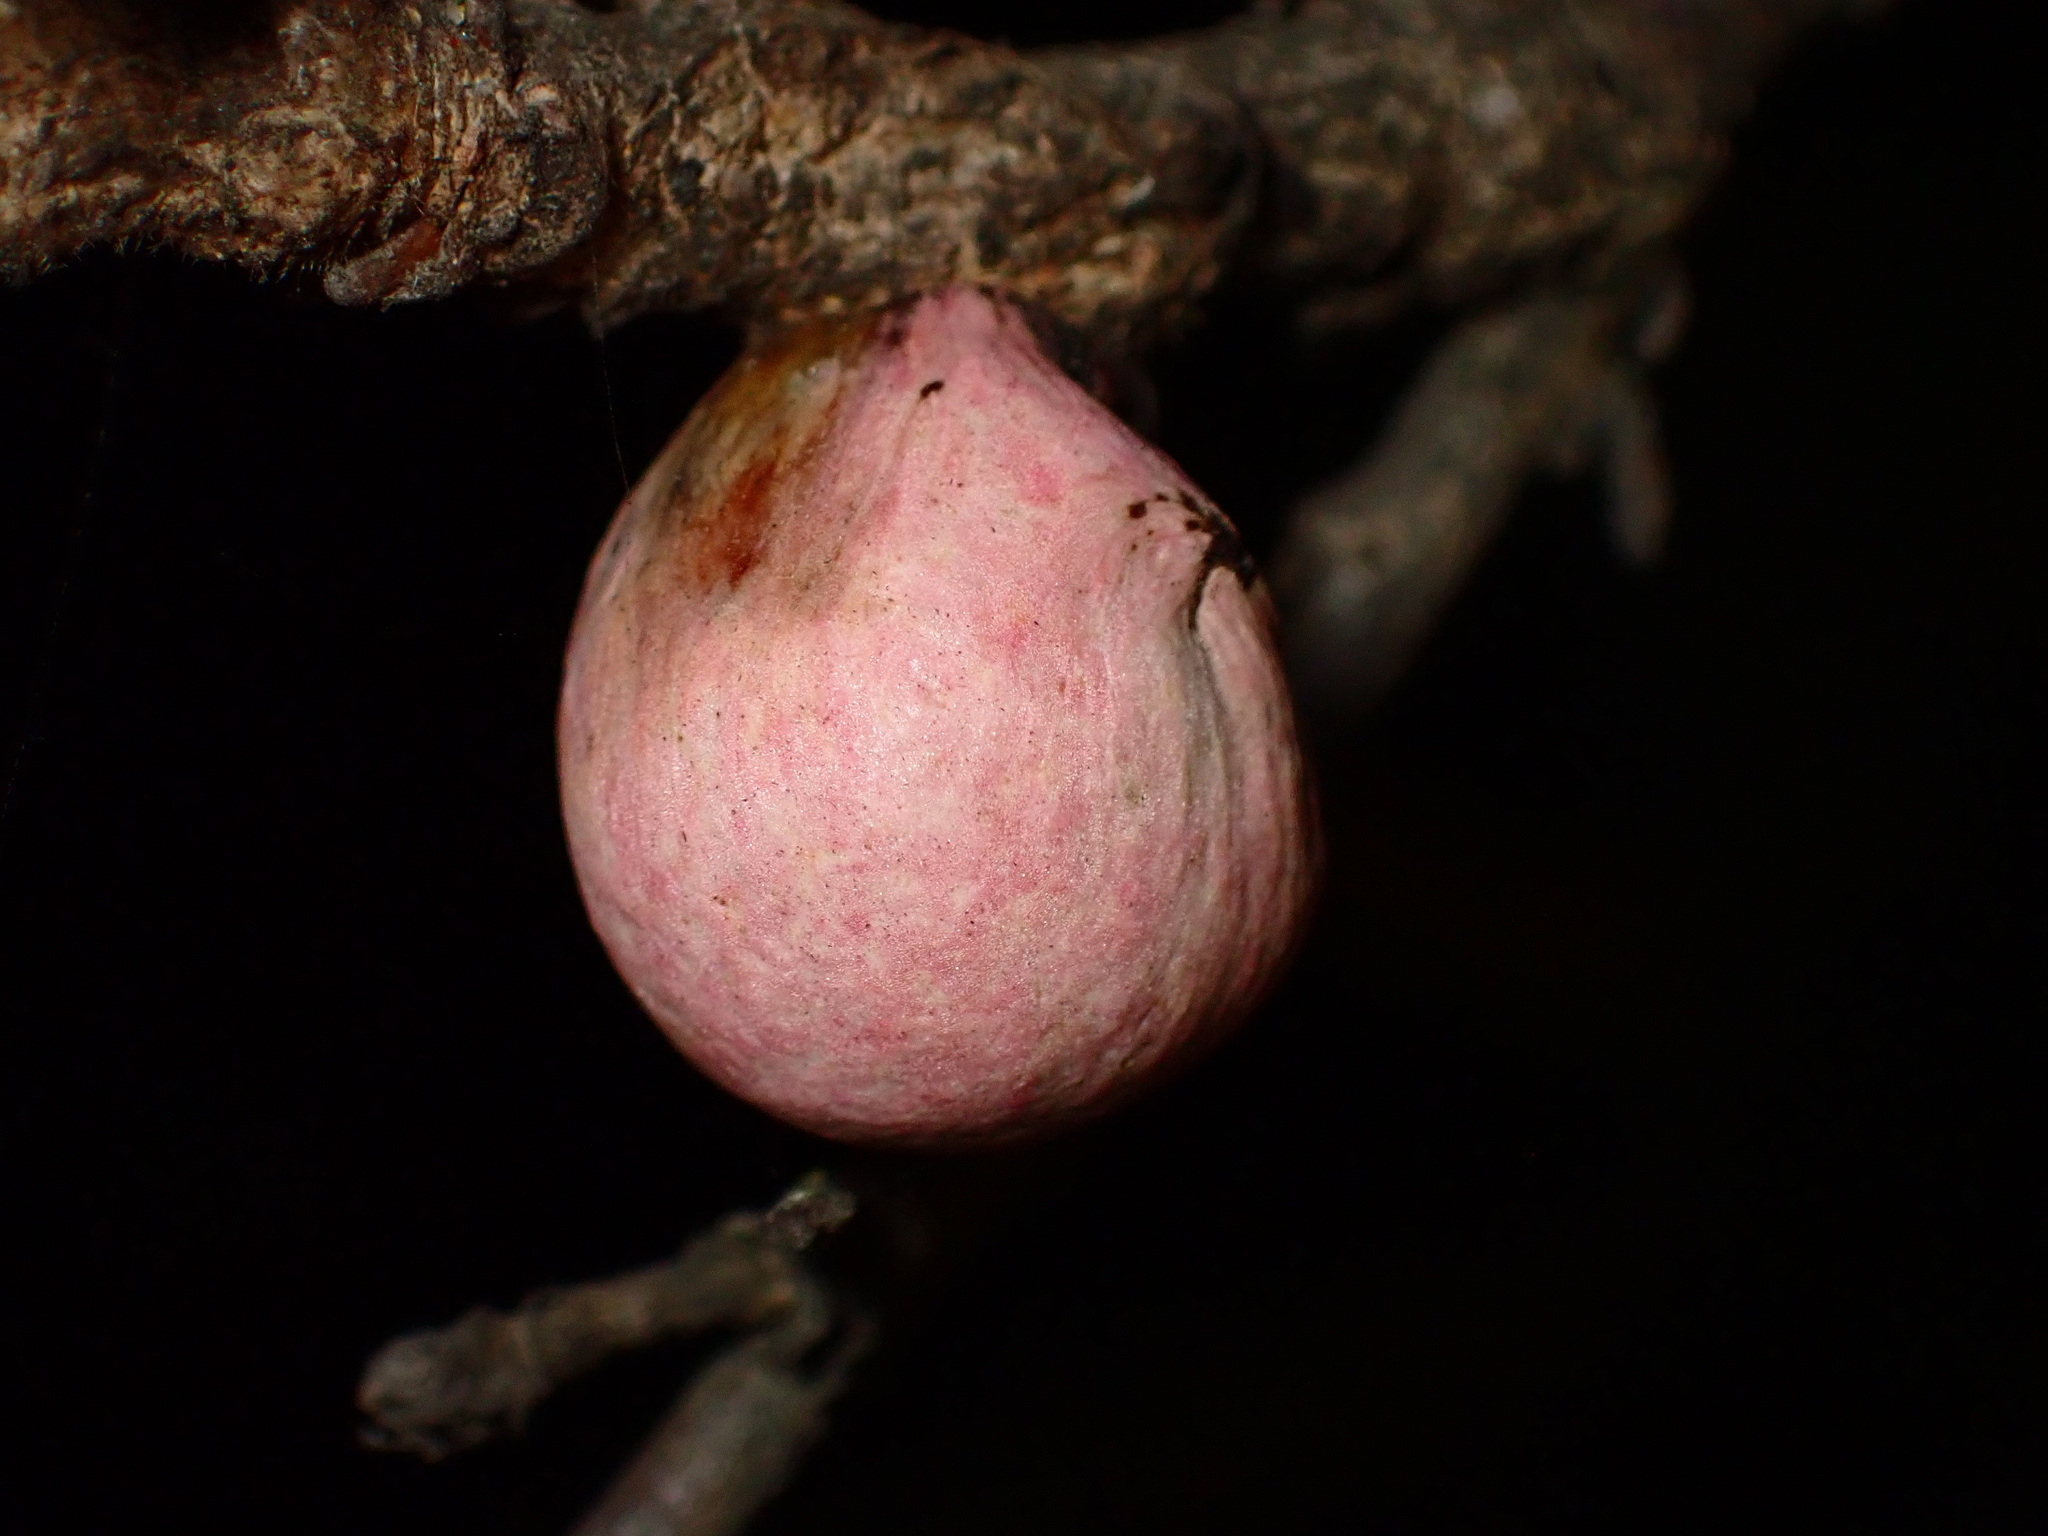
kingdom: Animalia
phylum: Arthropoda
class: Insecta
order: Hymenoptera
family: Cynipidae
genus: Andricus
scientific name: Andricus quercuscalifornicus
